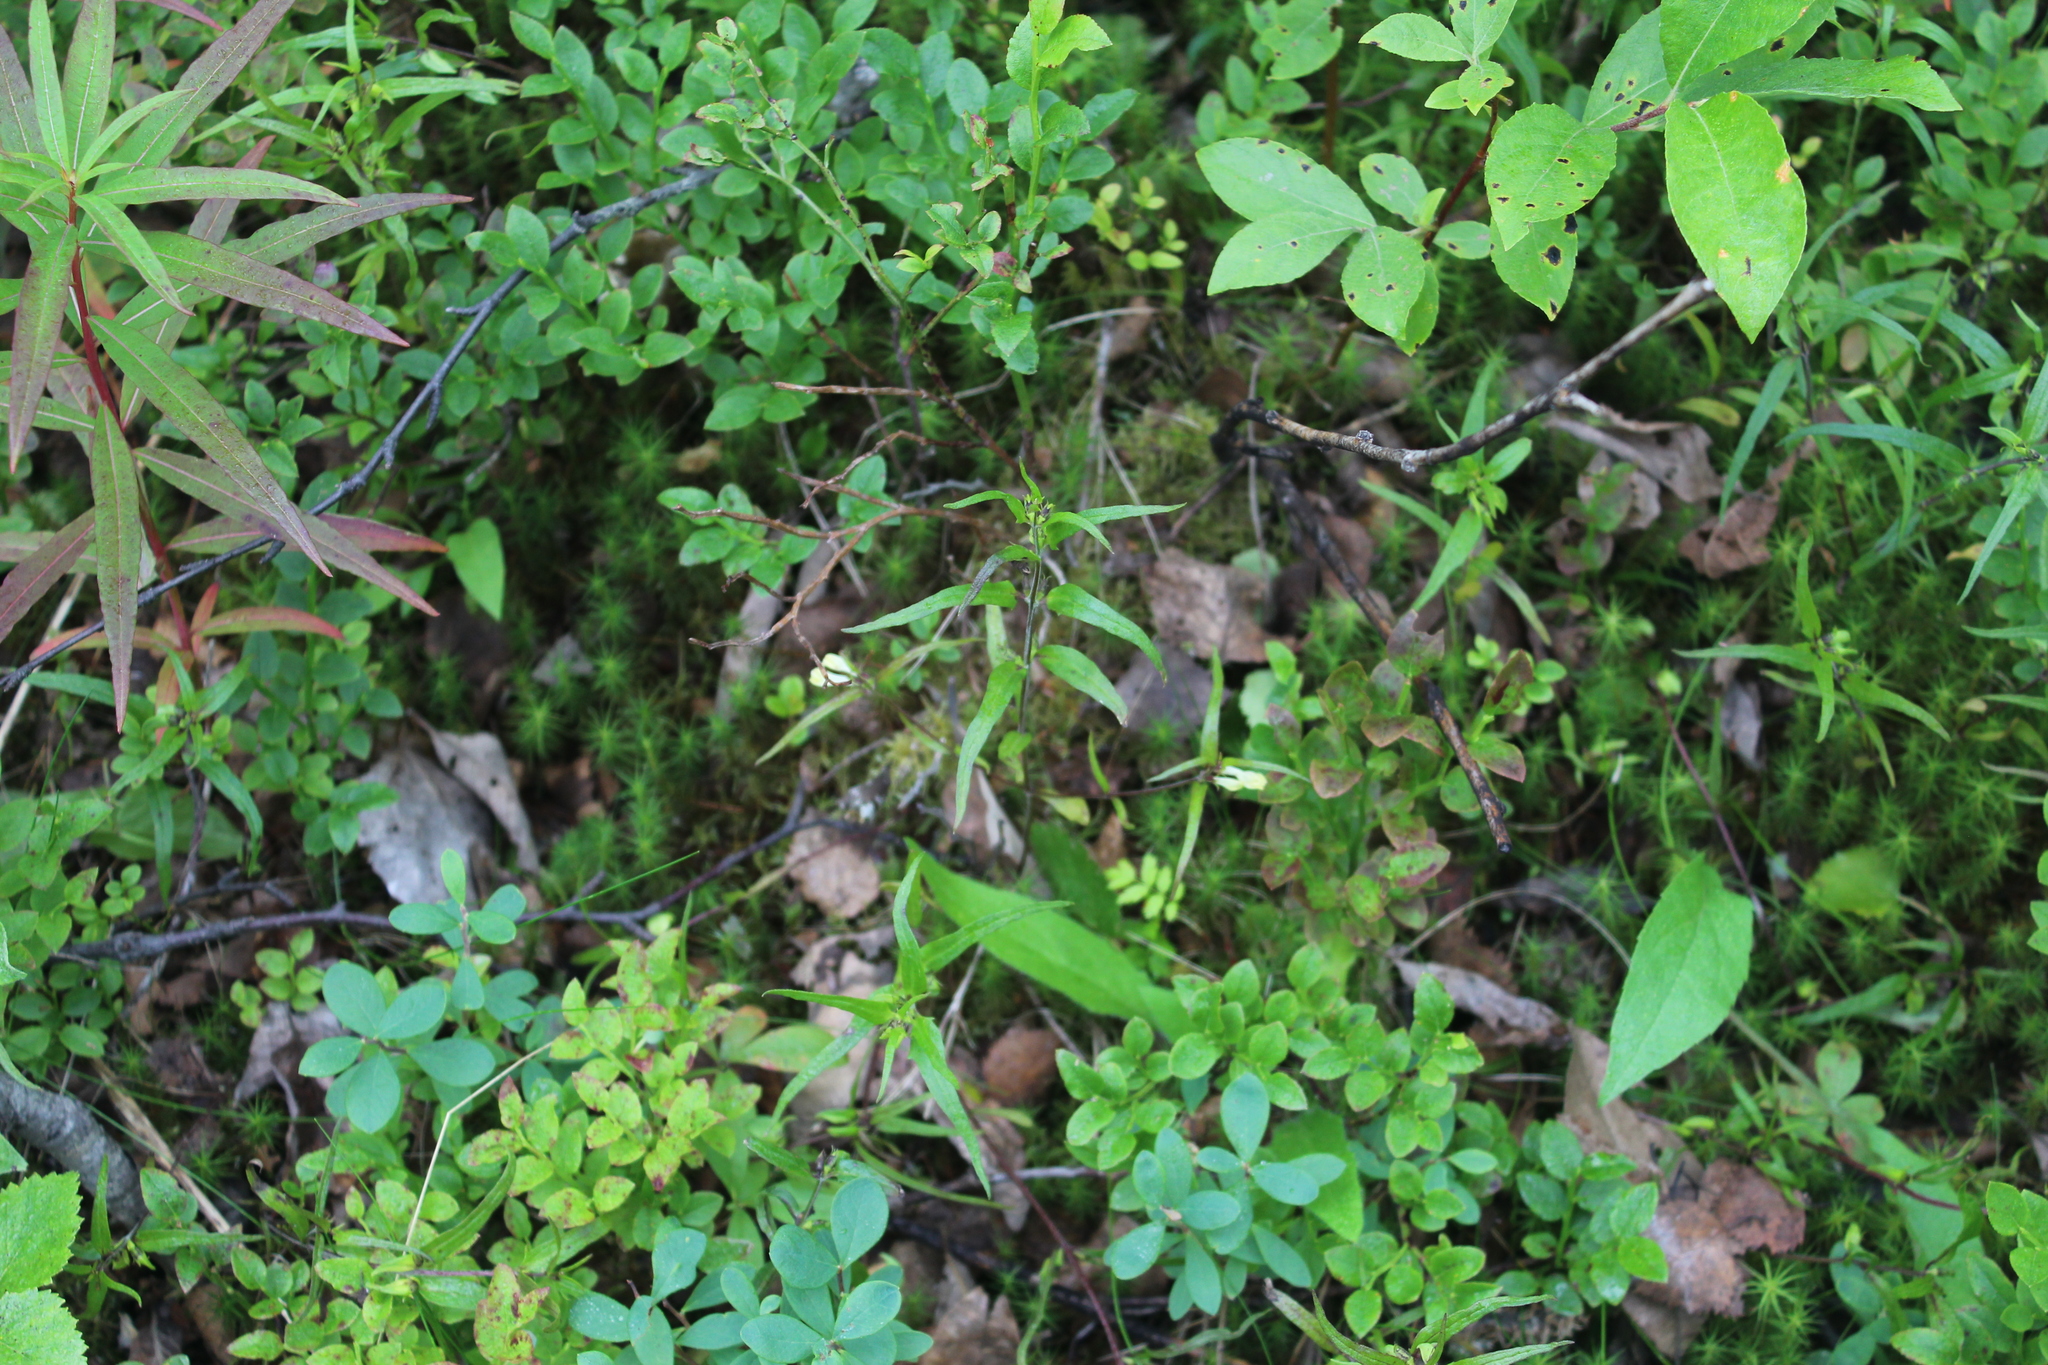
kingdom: Plantae
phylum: Tracheophyta
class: Magnoliopsida
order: Lamiales
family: Orobanchaceae
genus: Melampyrum
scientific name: Melampyrum pratense
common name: Common cow-wheat
